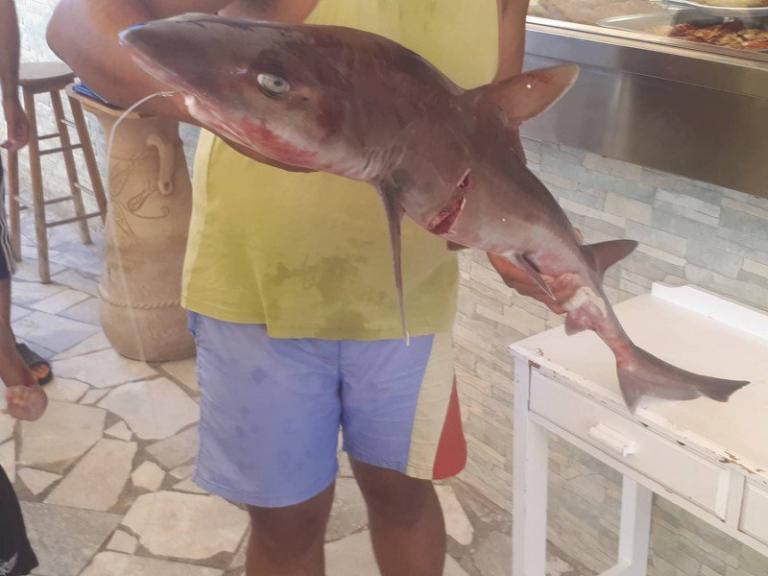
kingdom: Animalia
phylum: Chordata
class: Elasmobranchii
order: Carcharhiniformes
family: Triakidae
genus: Mustelus
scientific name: Mustelus mustelus
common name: Smooth-hound
